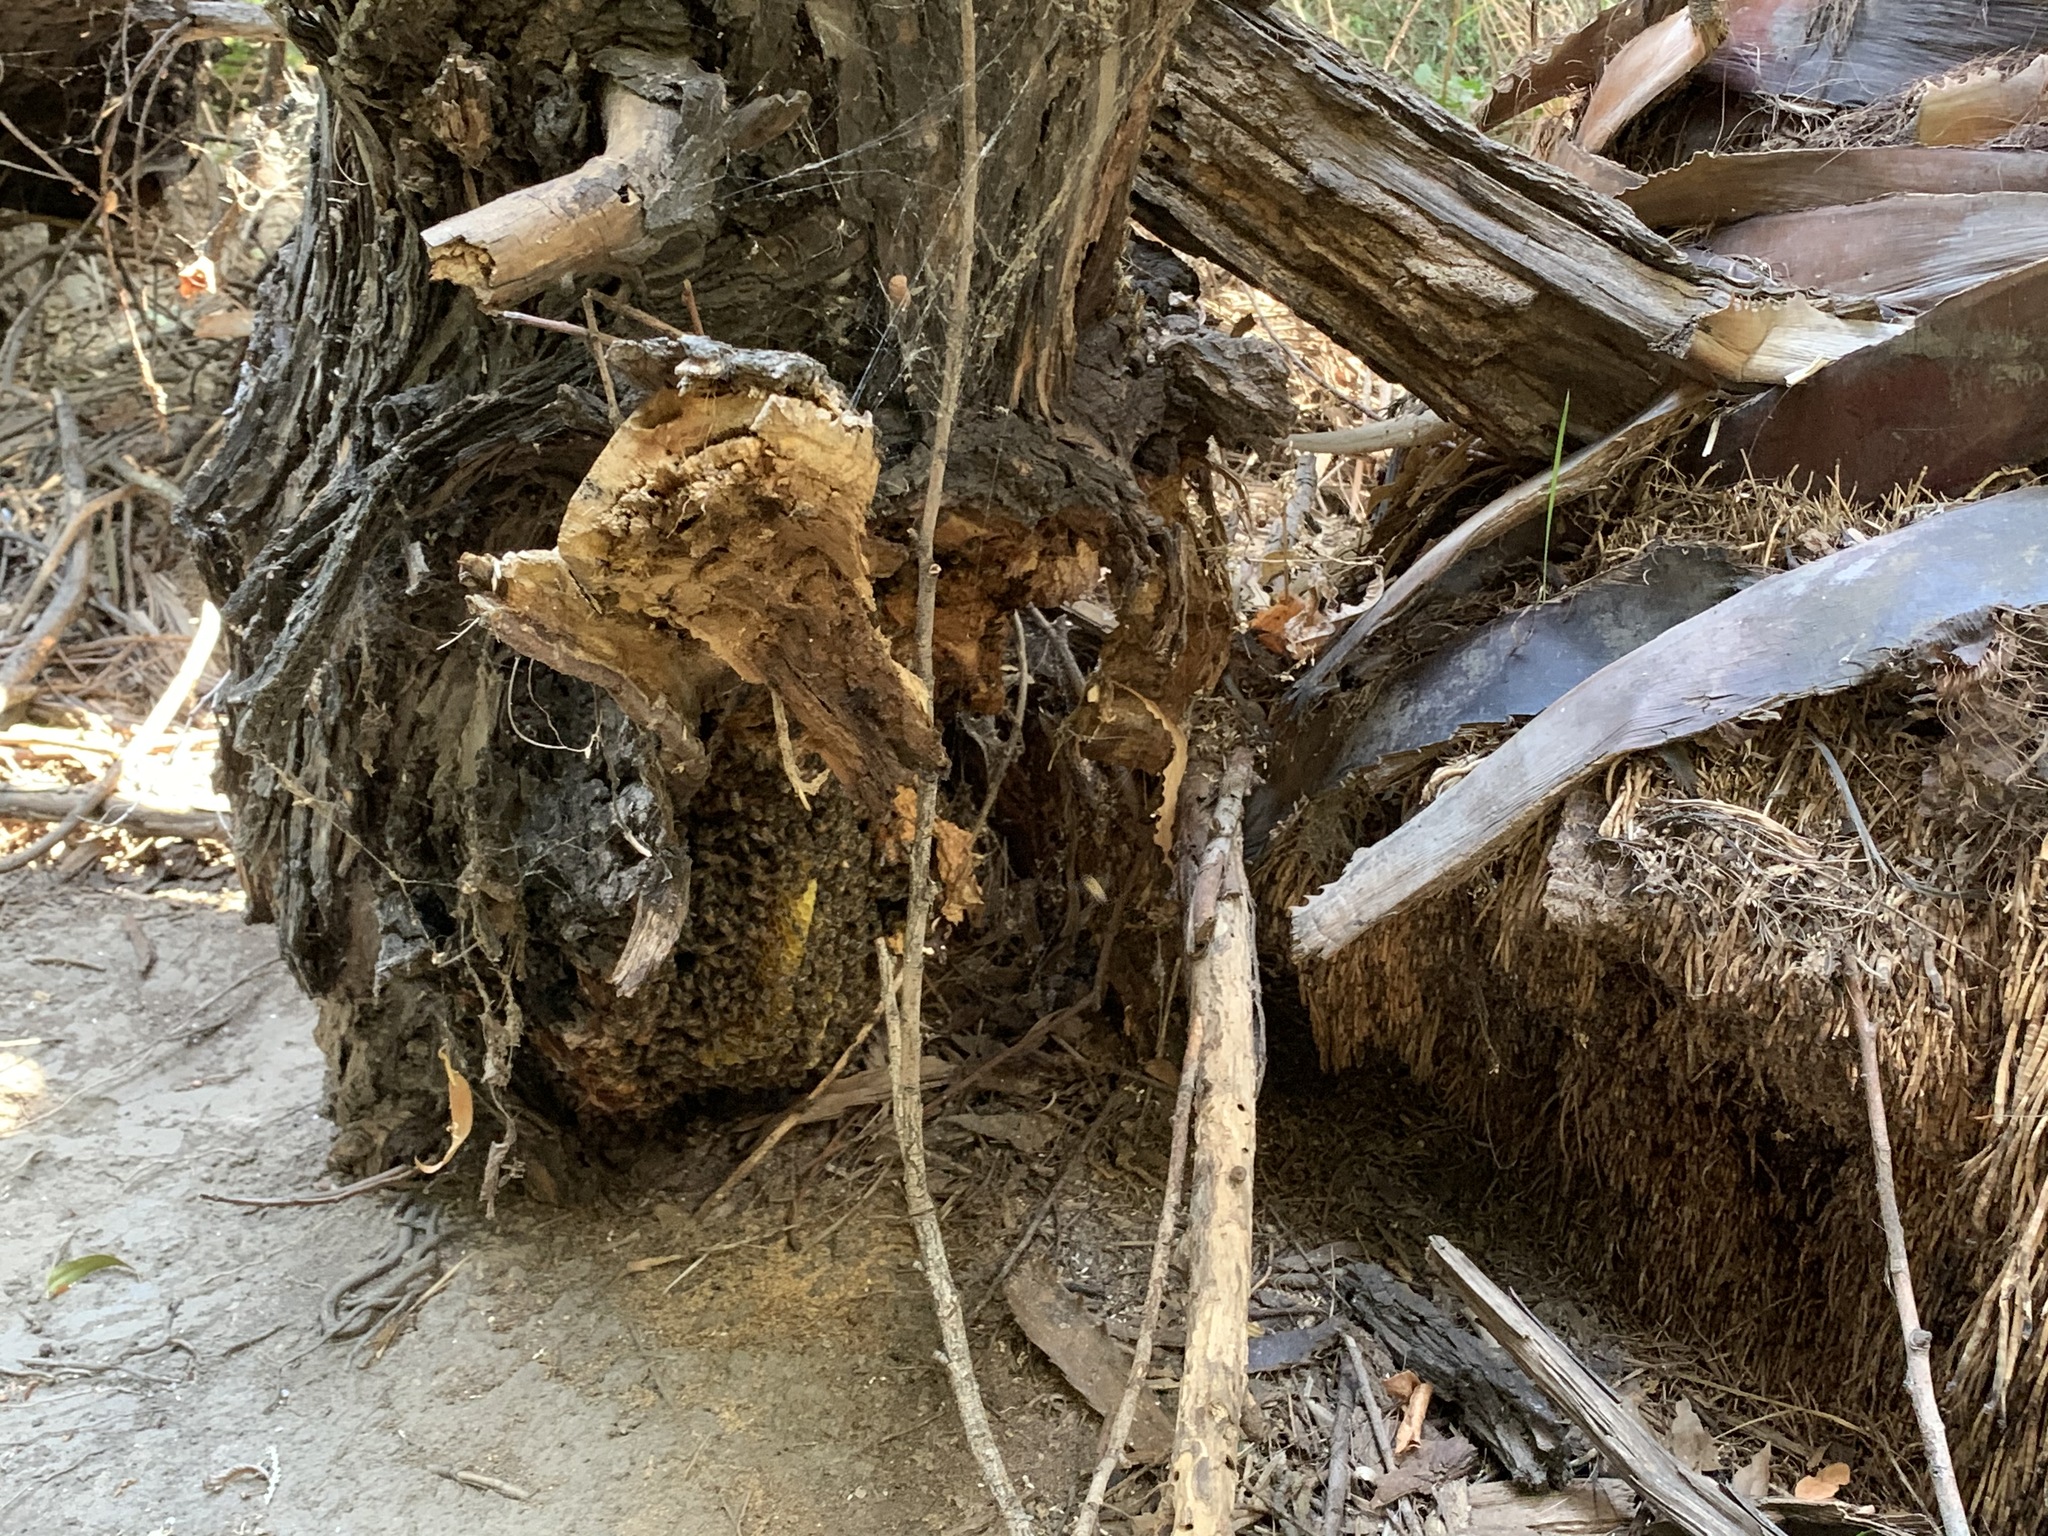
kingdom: Animalia
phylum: Arthropoda
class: Insecta
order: Hymenoptera
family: Apidae
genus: Apis
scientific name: Apis mellifera
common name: Honey bee
